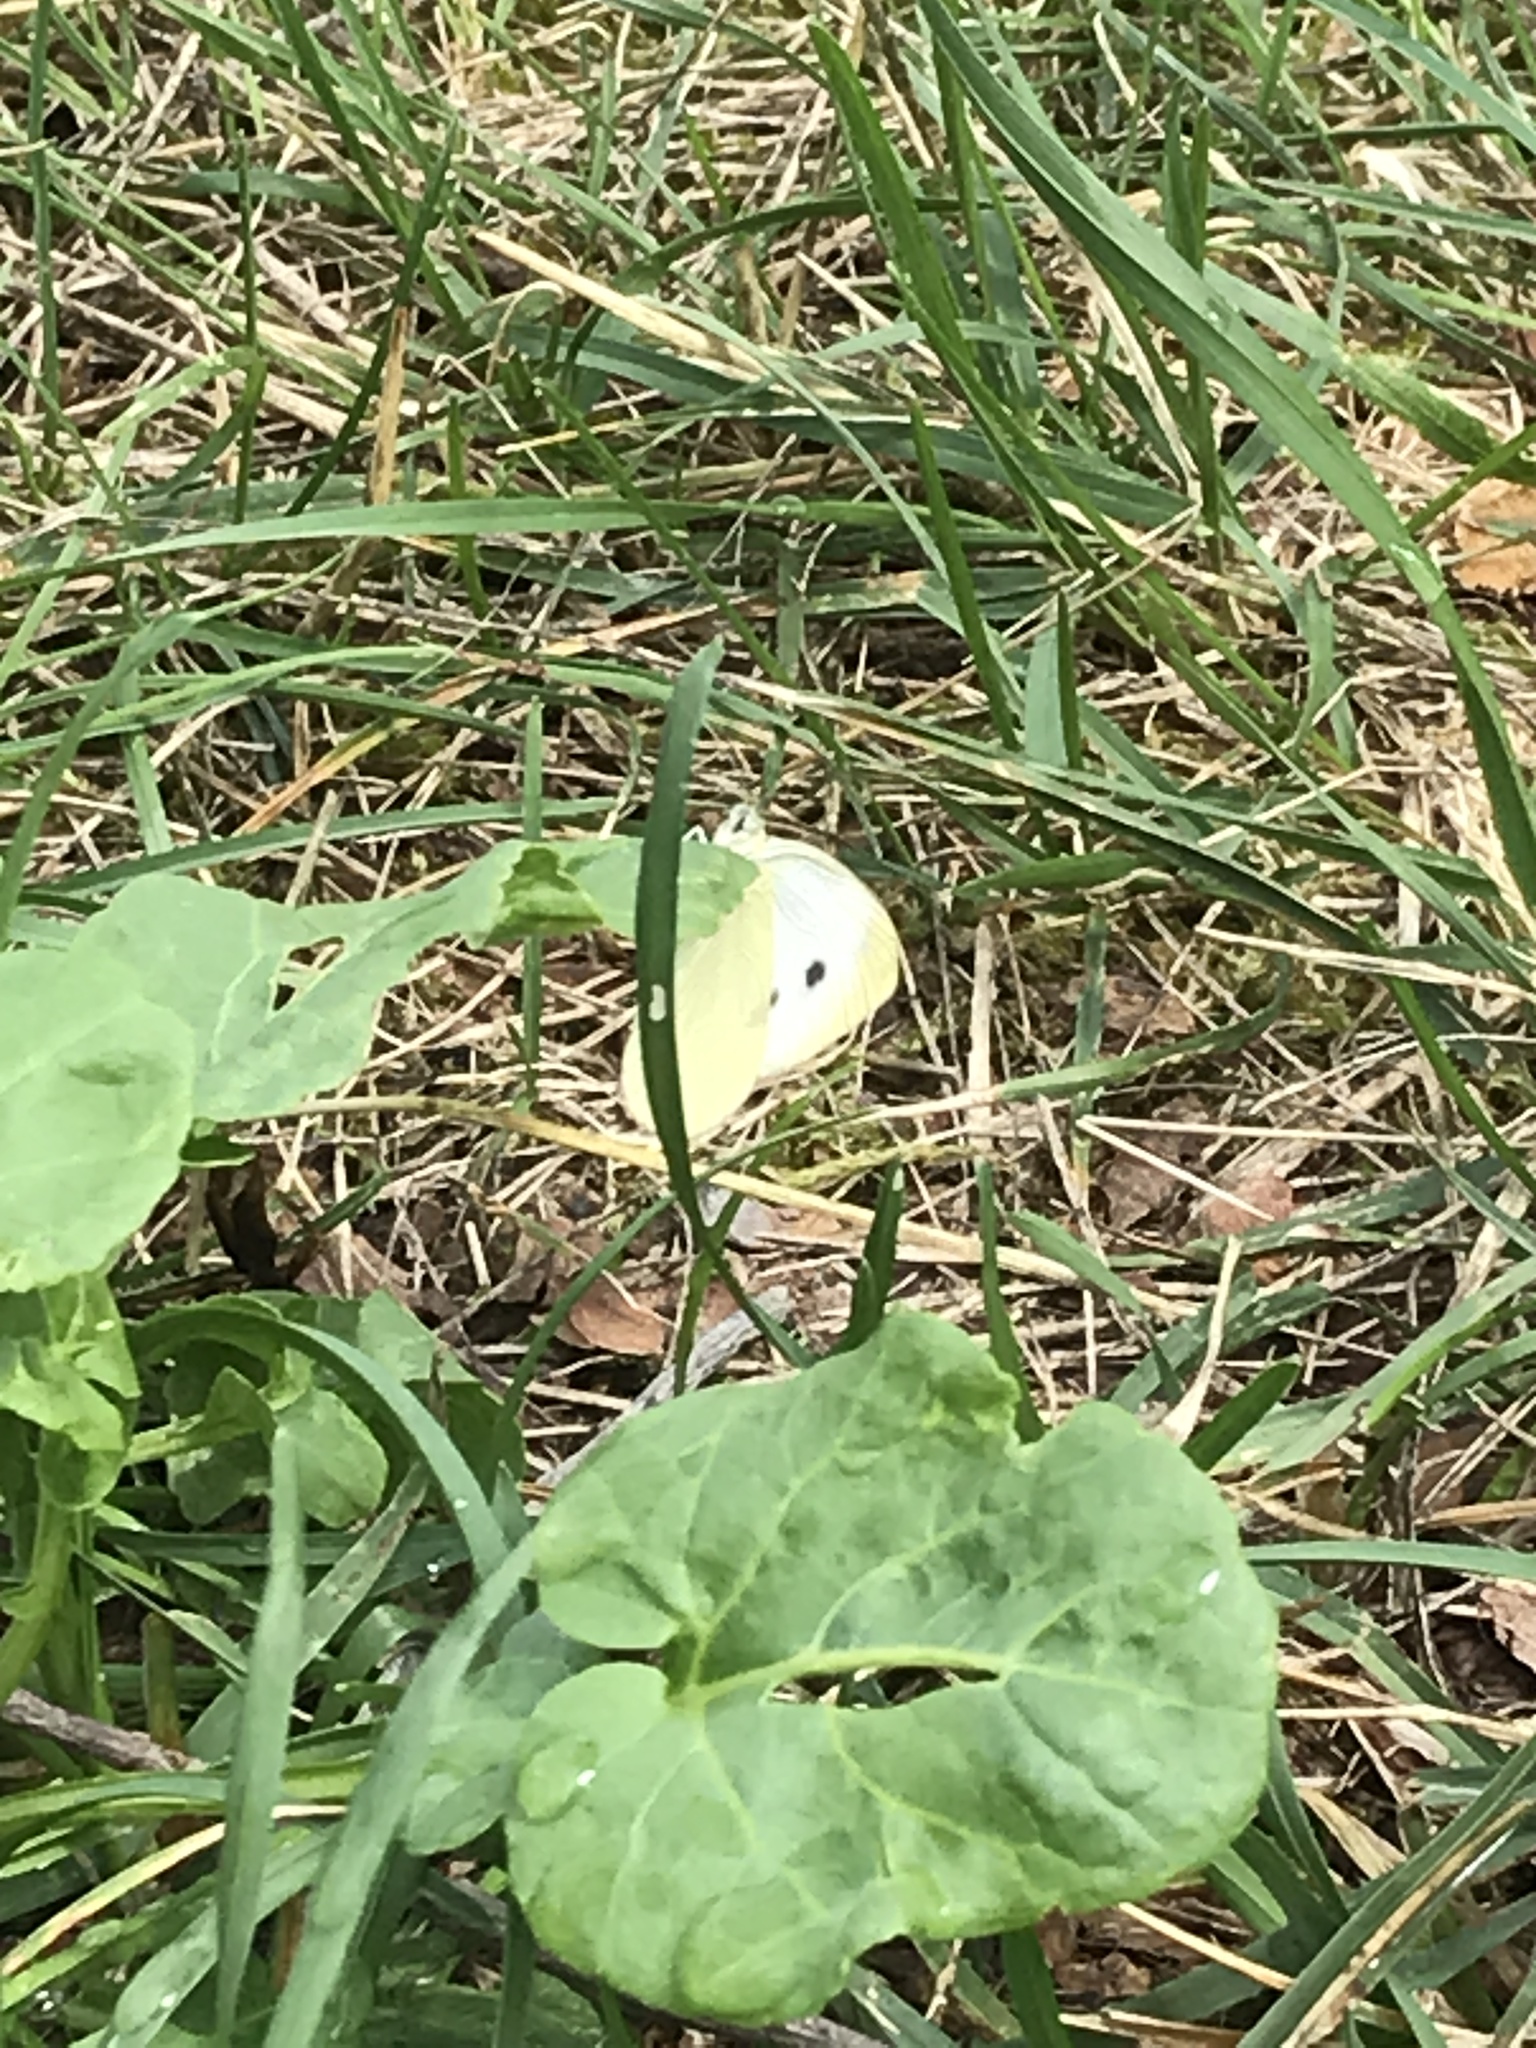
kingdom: Animalia
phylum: Arthropoda
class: Insecta
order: Lepidoptera
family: Pieridae
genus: Pieris
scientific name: Pieris rapae
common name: Small white
